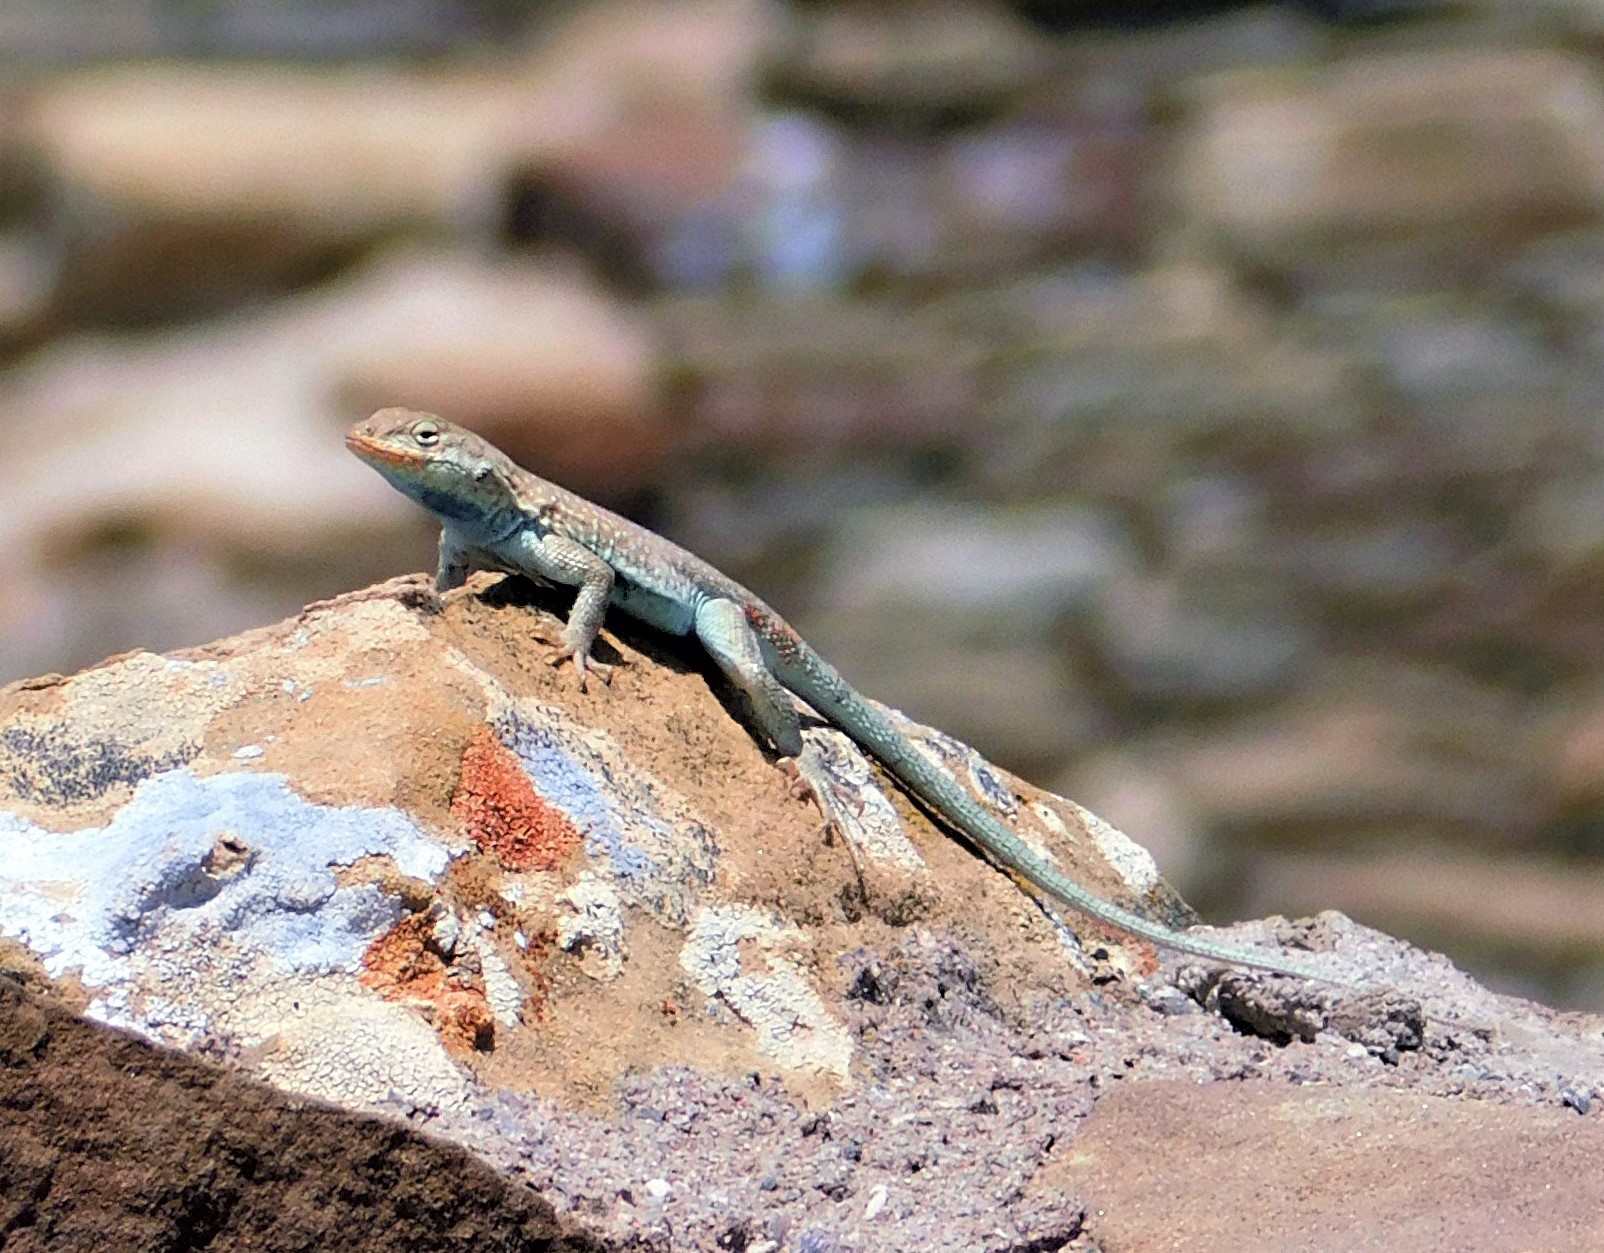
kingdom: Animalia
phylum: Chordata
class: Squamata
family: Phrynosomatidae
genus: Uta
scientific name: Uta stansburiana
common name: Side-blotched lizard
